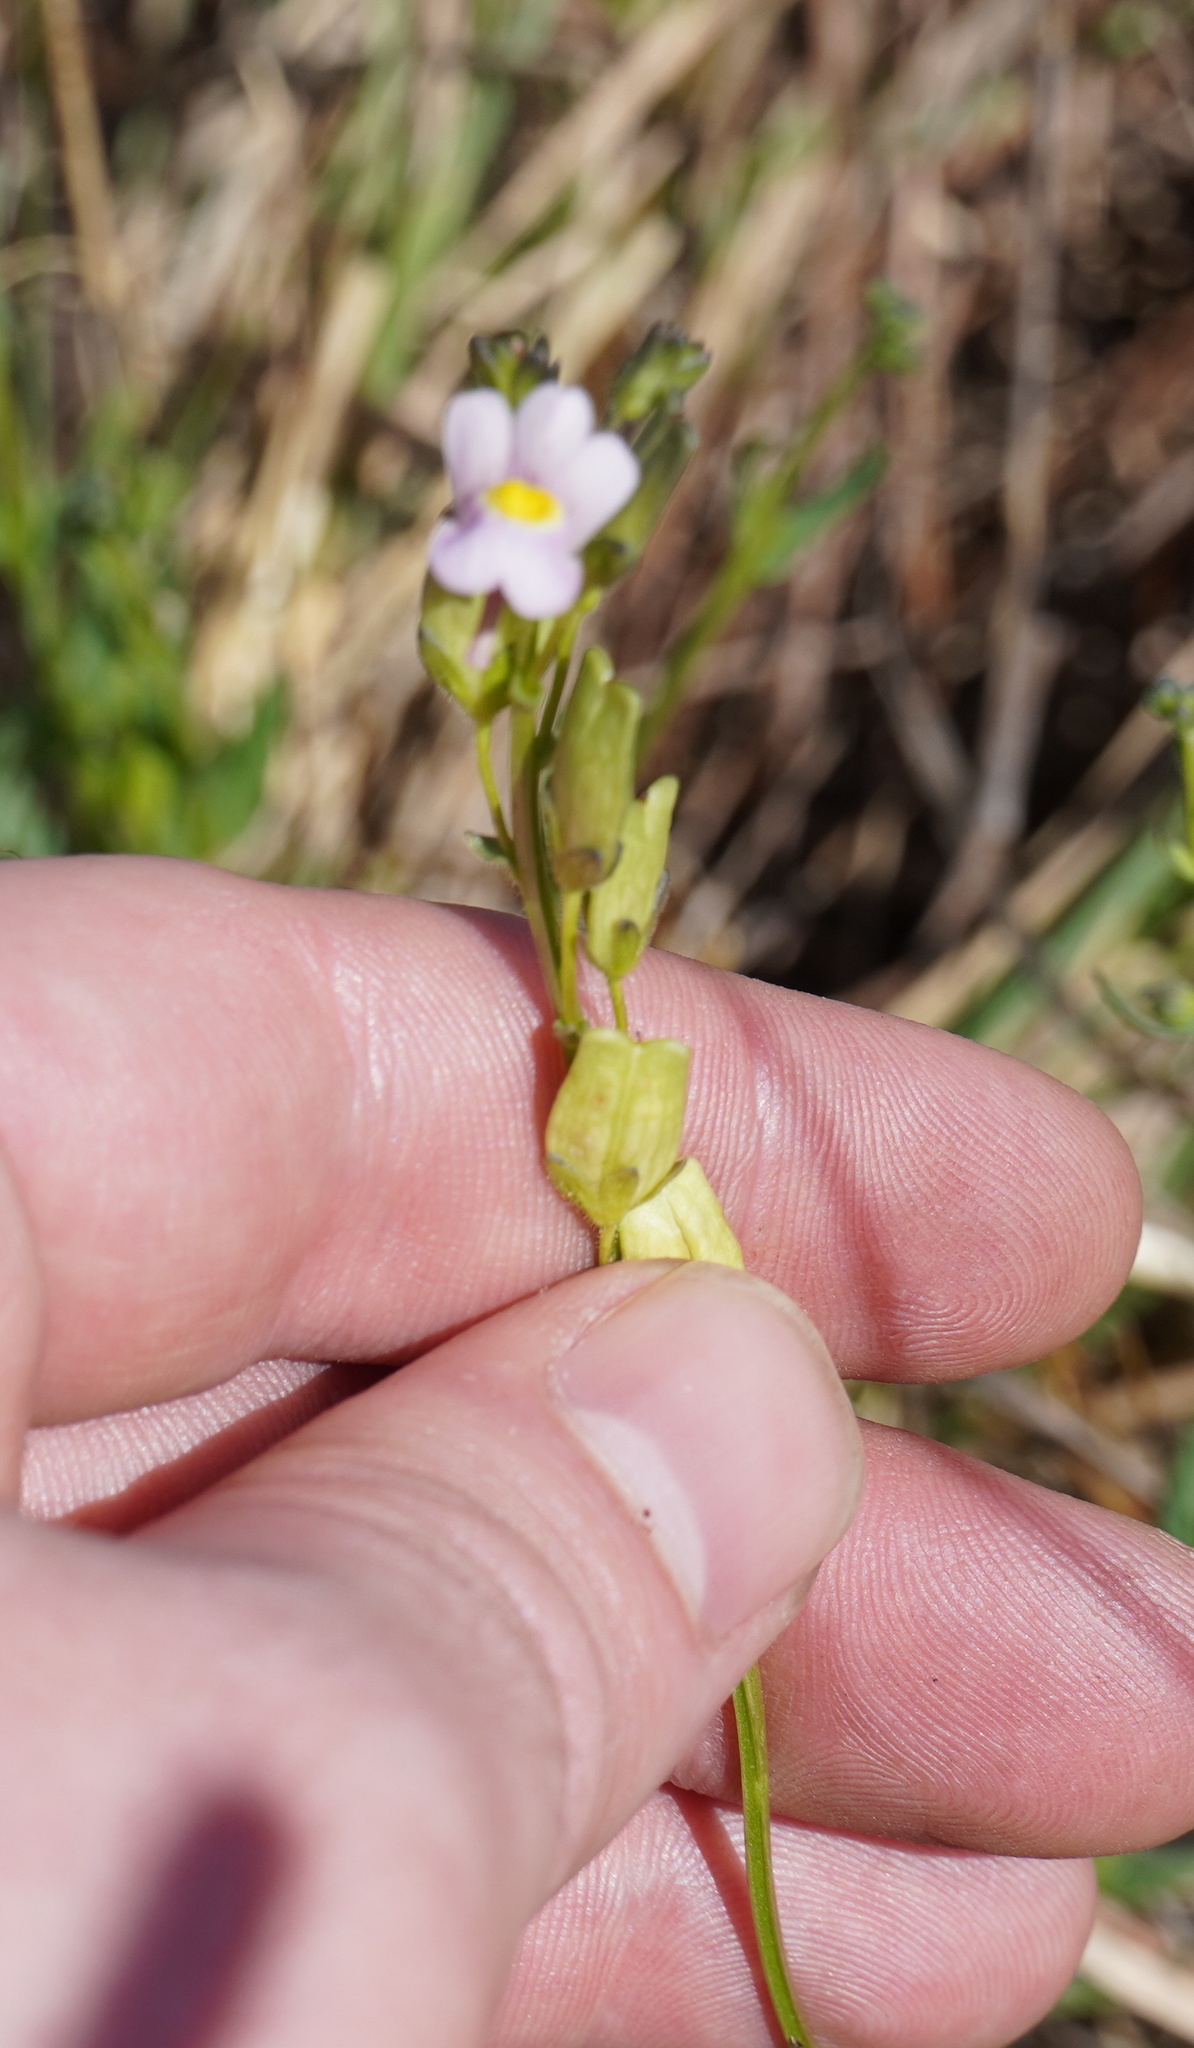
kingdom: Plantae
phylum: Tracheophyta
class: Magnoliopsida
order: Lamiales
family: Scrophulariaceae
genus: Nemesia
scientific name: Nemesia fruticans
